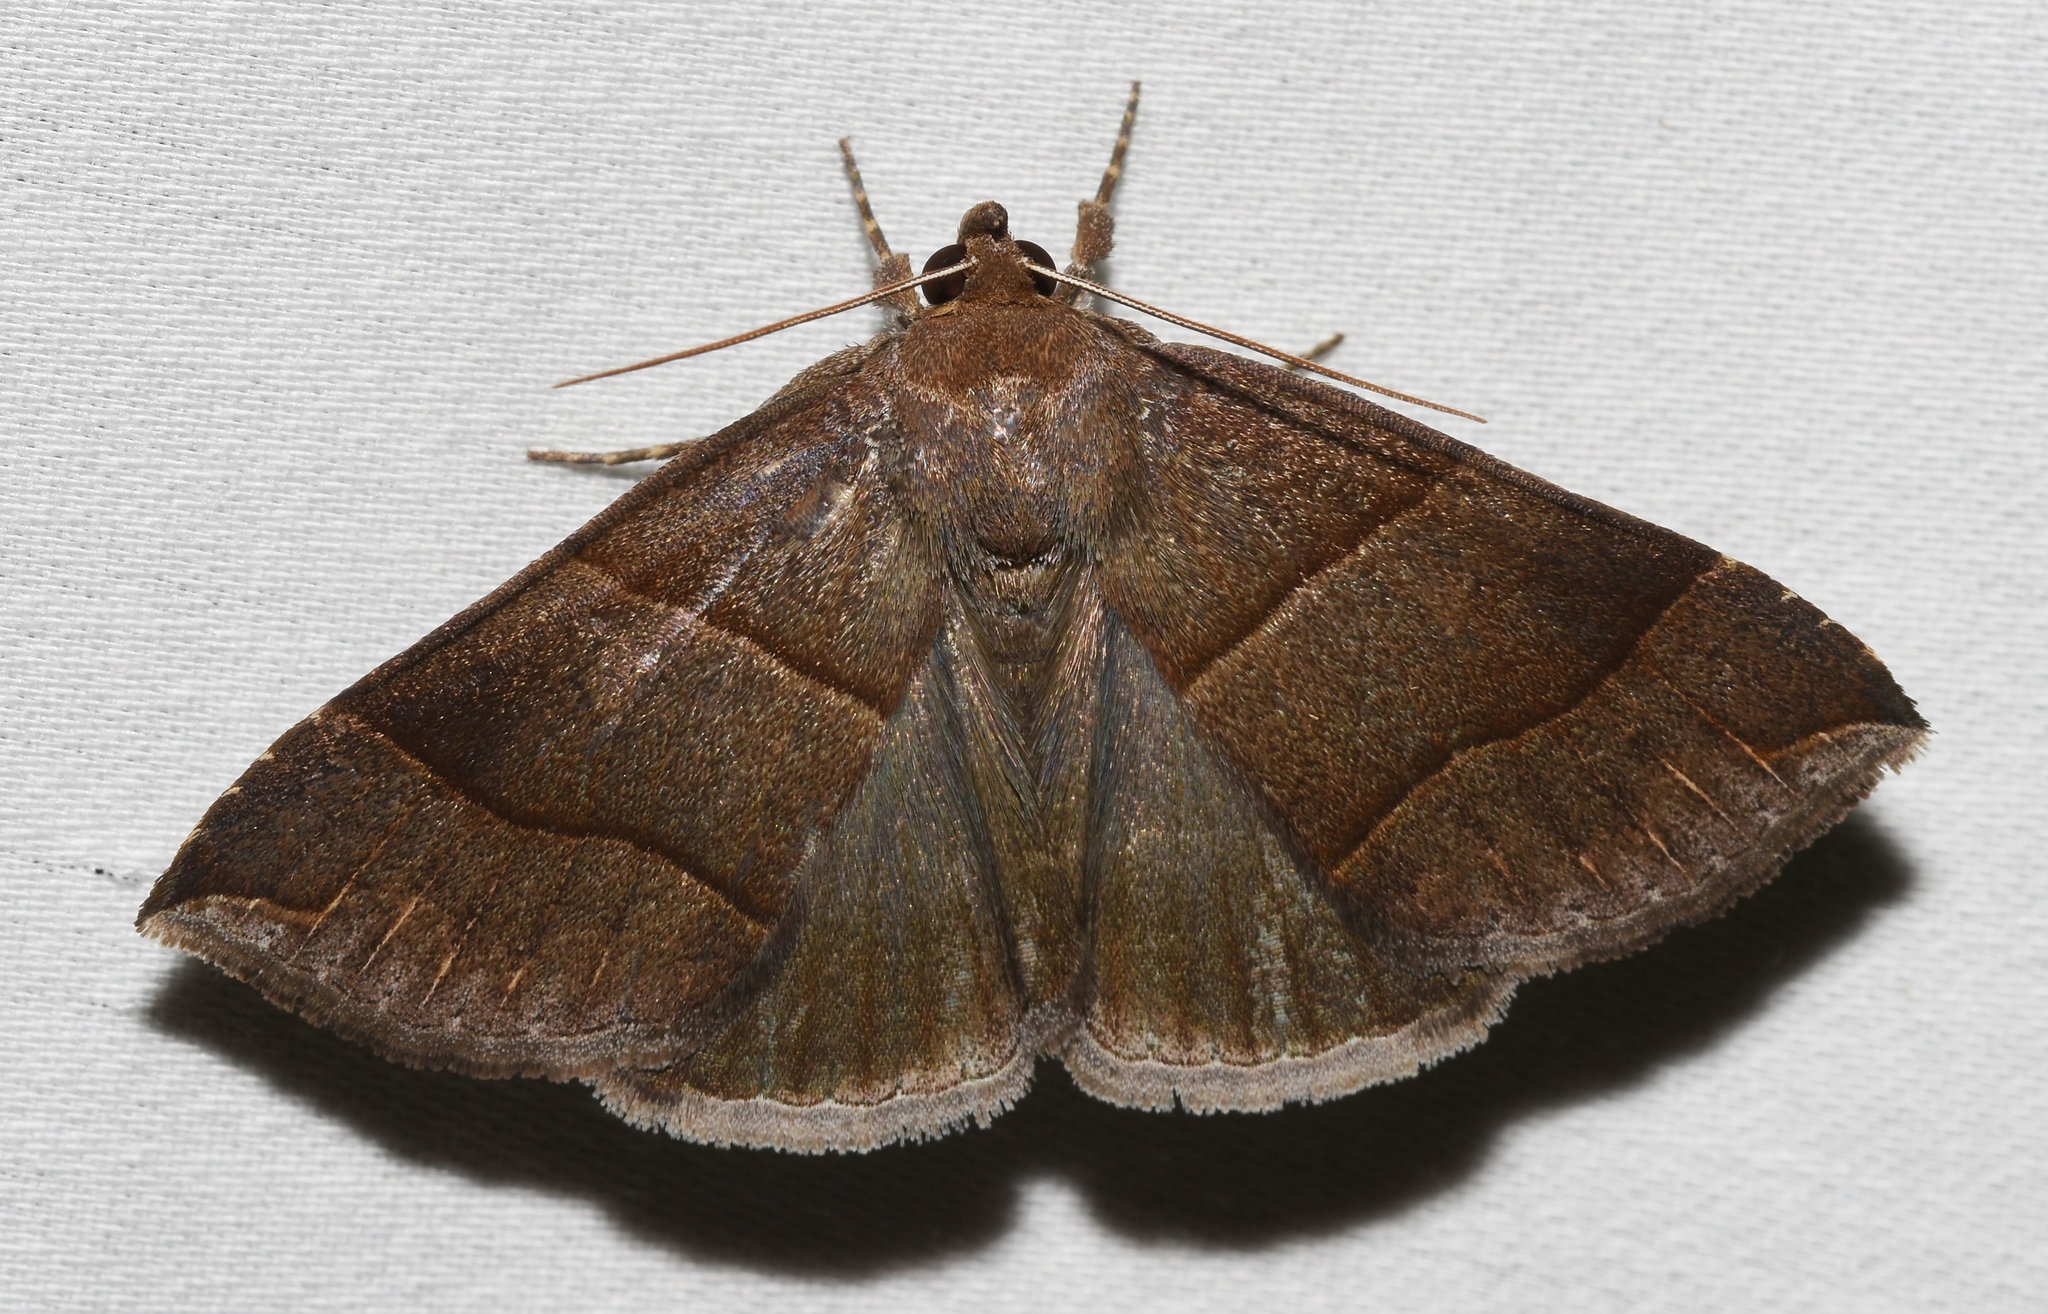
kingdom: Animalia
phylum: Arthropoda
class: Insecta
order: Lepidoptera
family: Erebidae
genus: Parallelia
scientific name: Parallelia bistriaris
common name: Maple looper moth
